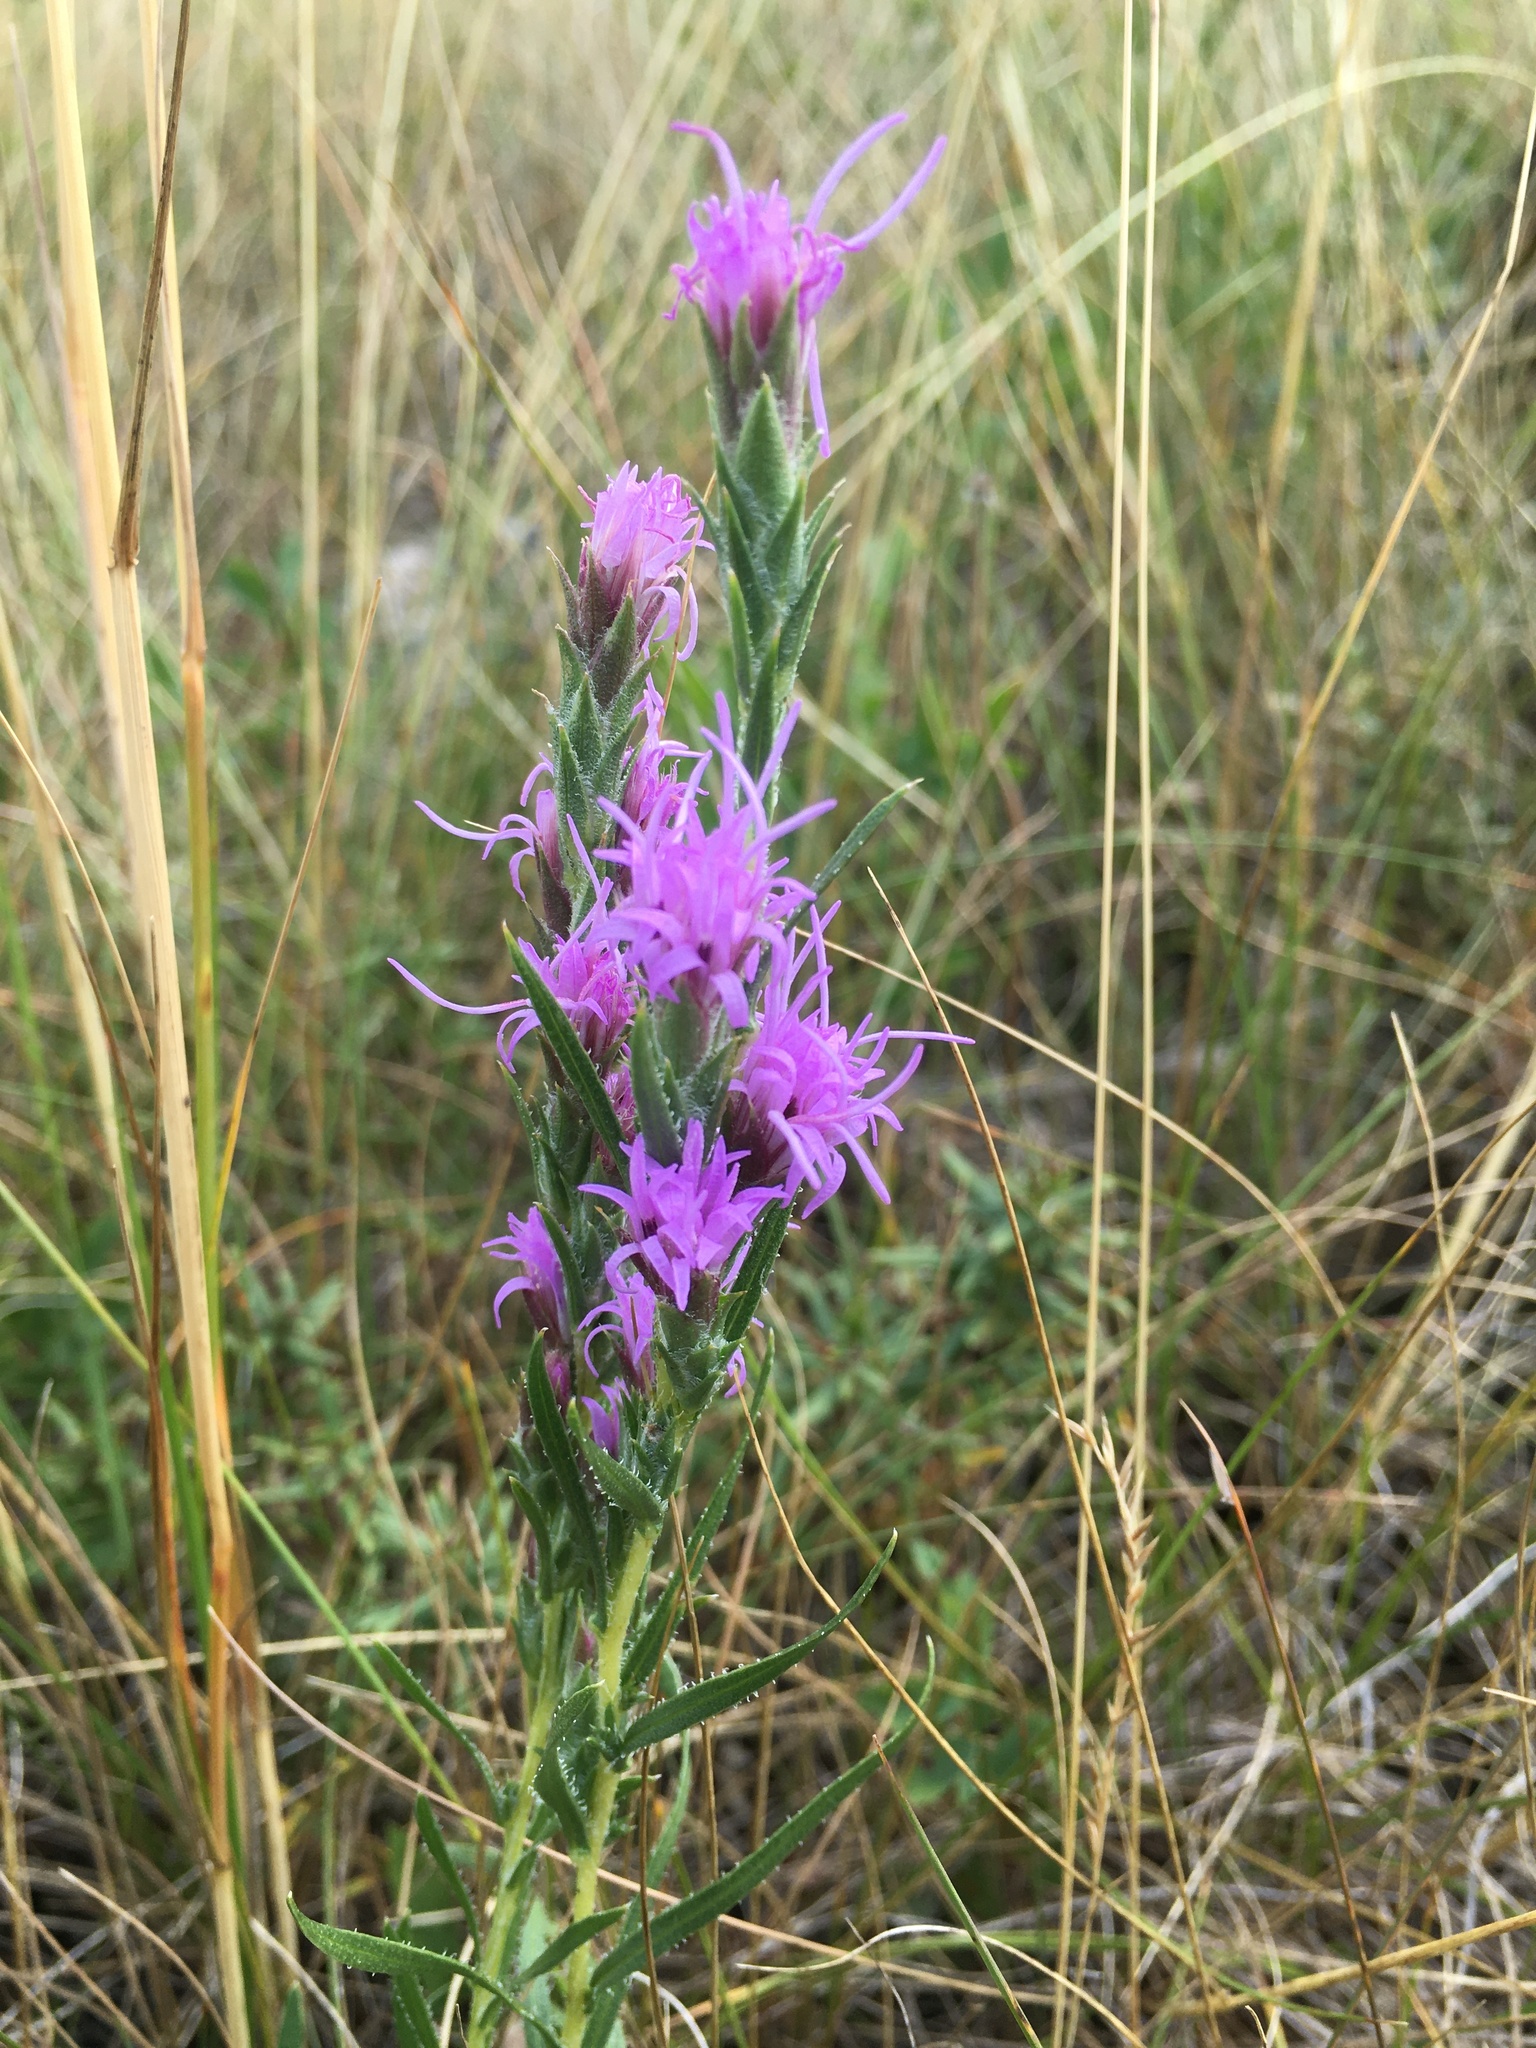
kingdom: Plantae
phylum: Tracheophyta
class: Magnoliopsida
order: Asterales
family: Asteraceae
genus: Liatris
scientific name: Liatris punctata
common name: Dotted gayfeather
